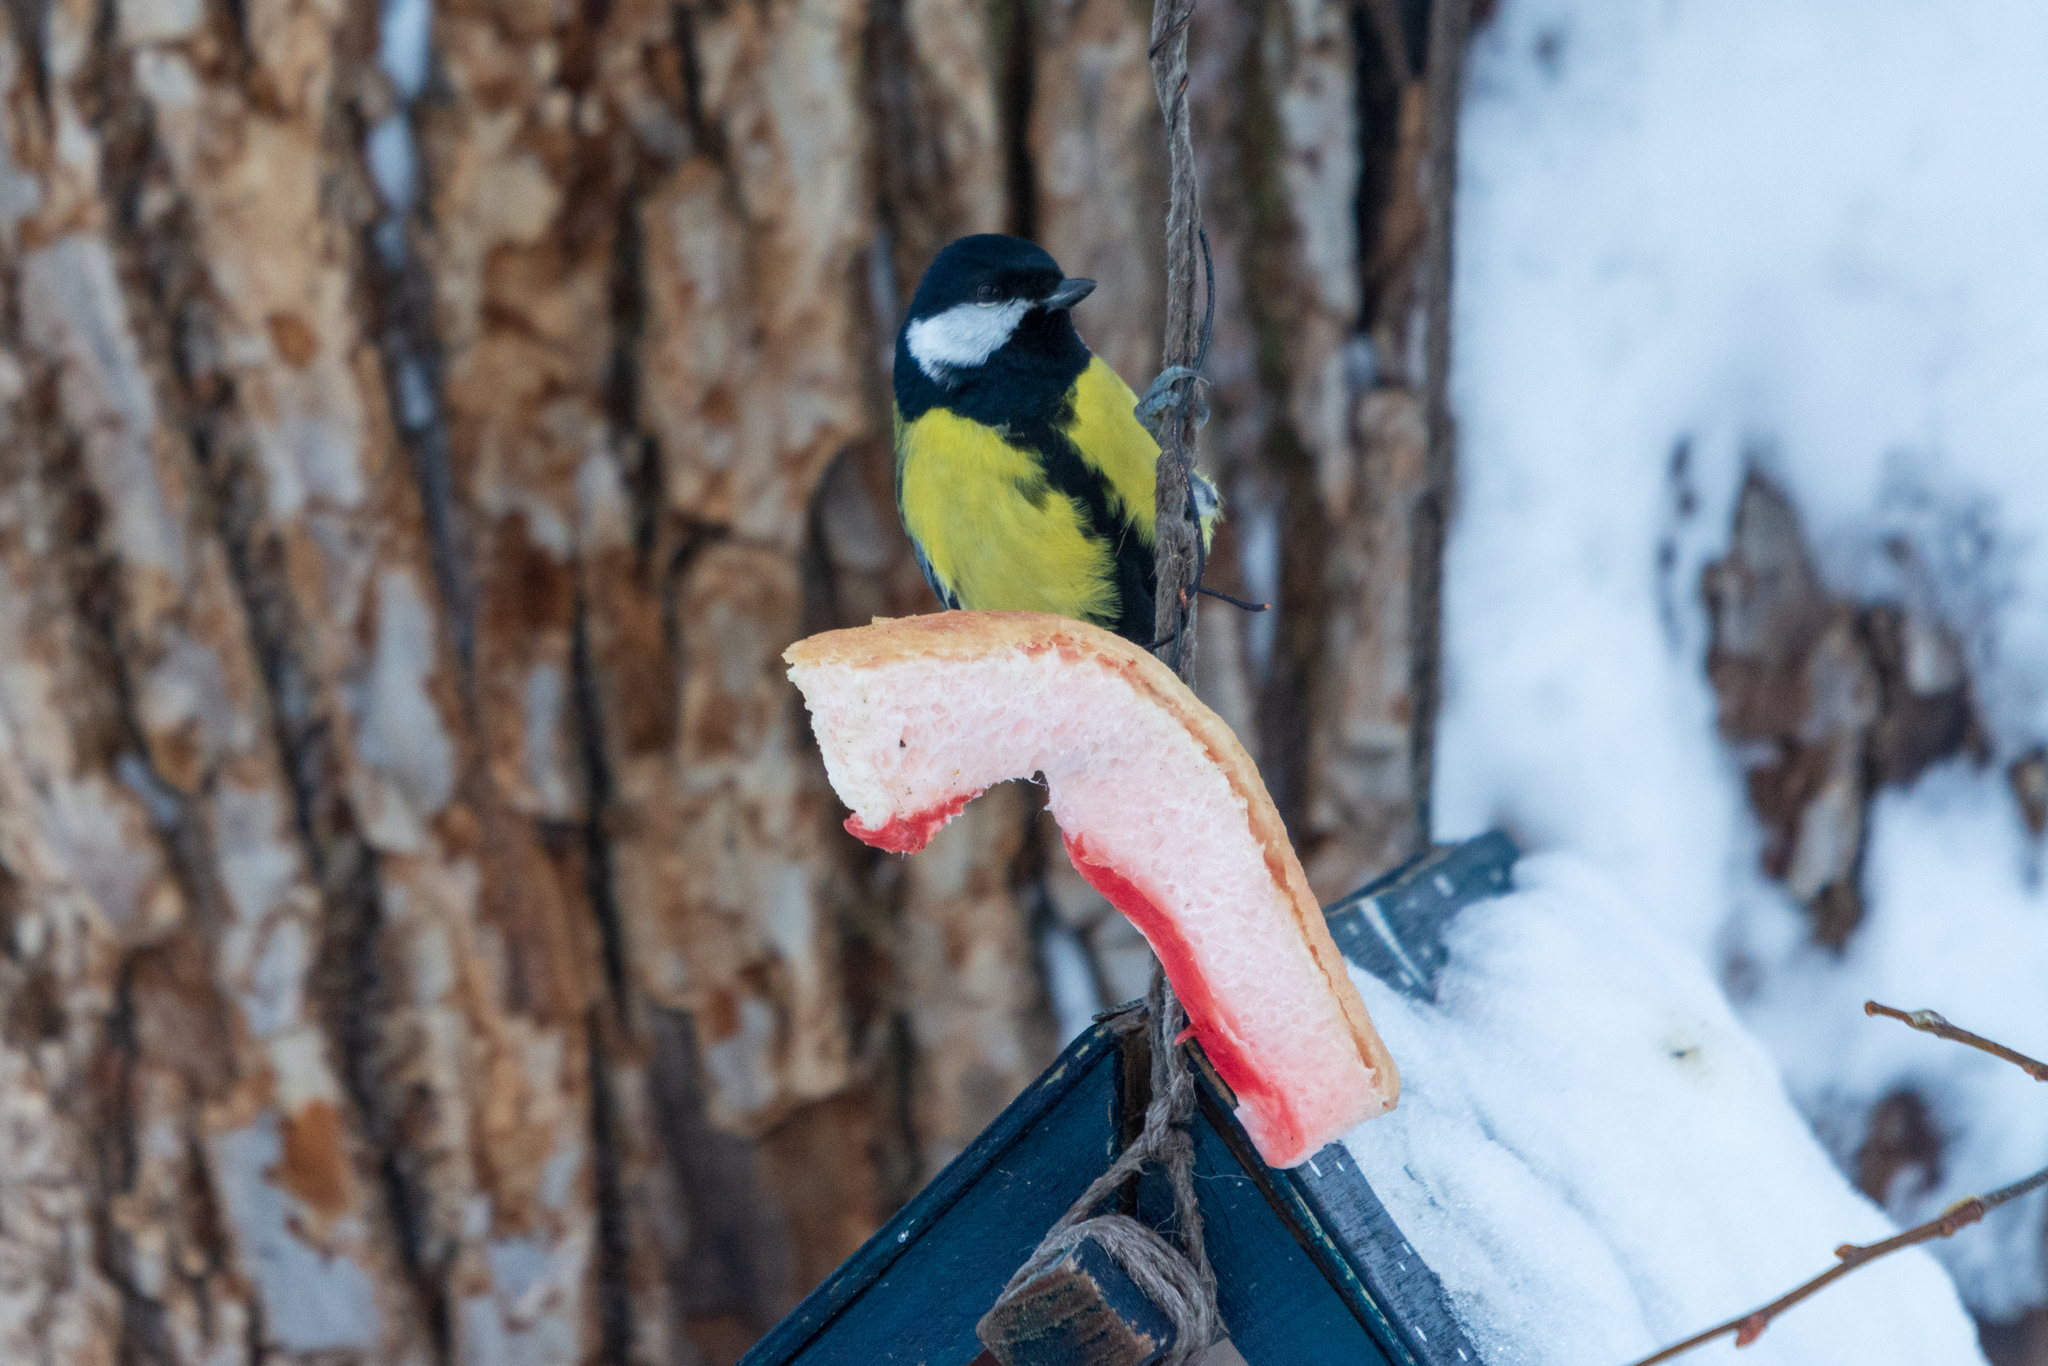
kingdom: Animalia
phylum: Chordata
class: Aves
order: Passeriformes
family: Paridae
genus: Parus
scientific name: Parus major
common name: Great tit
